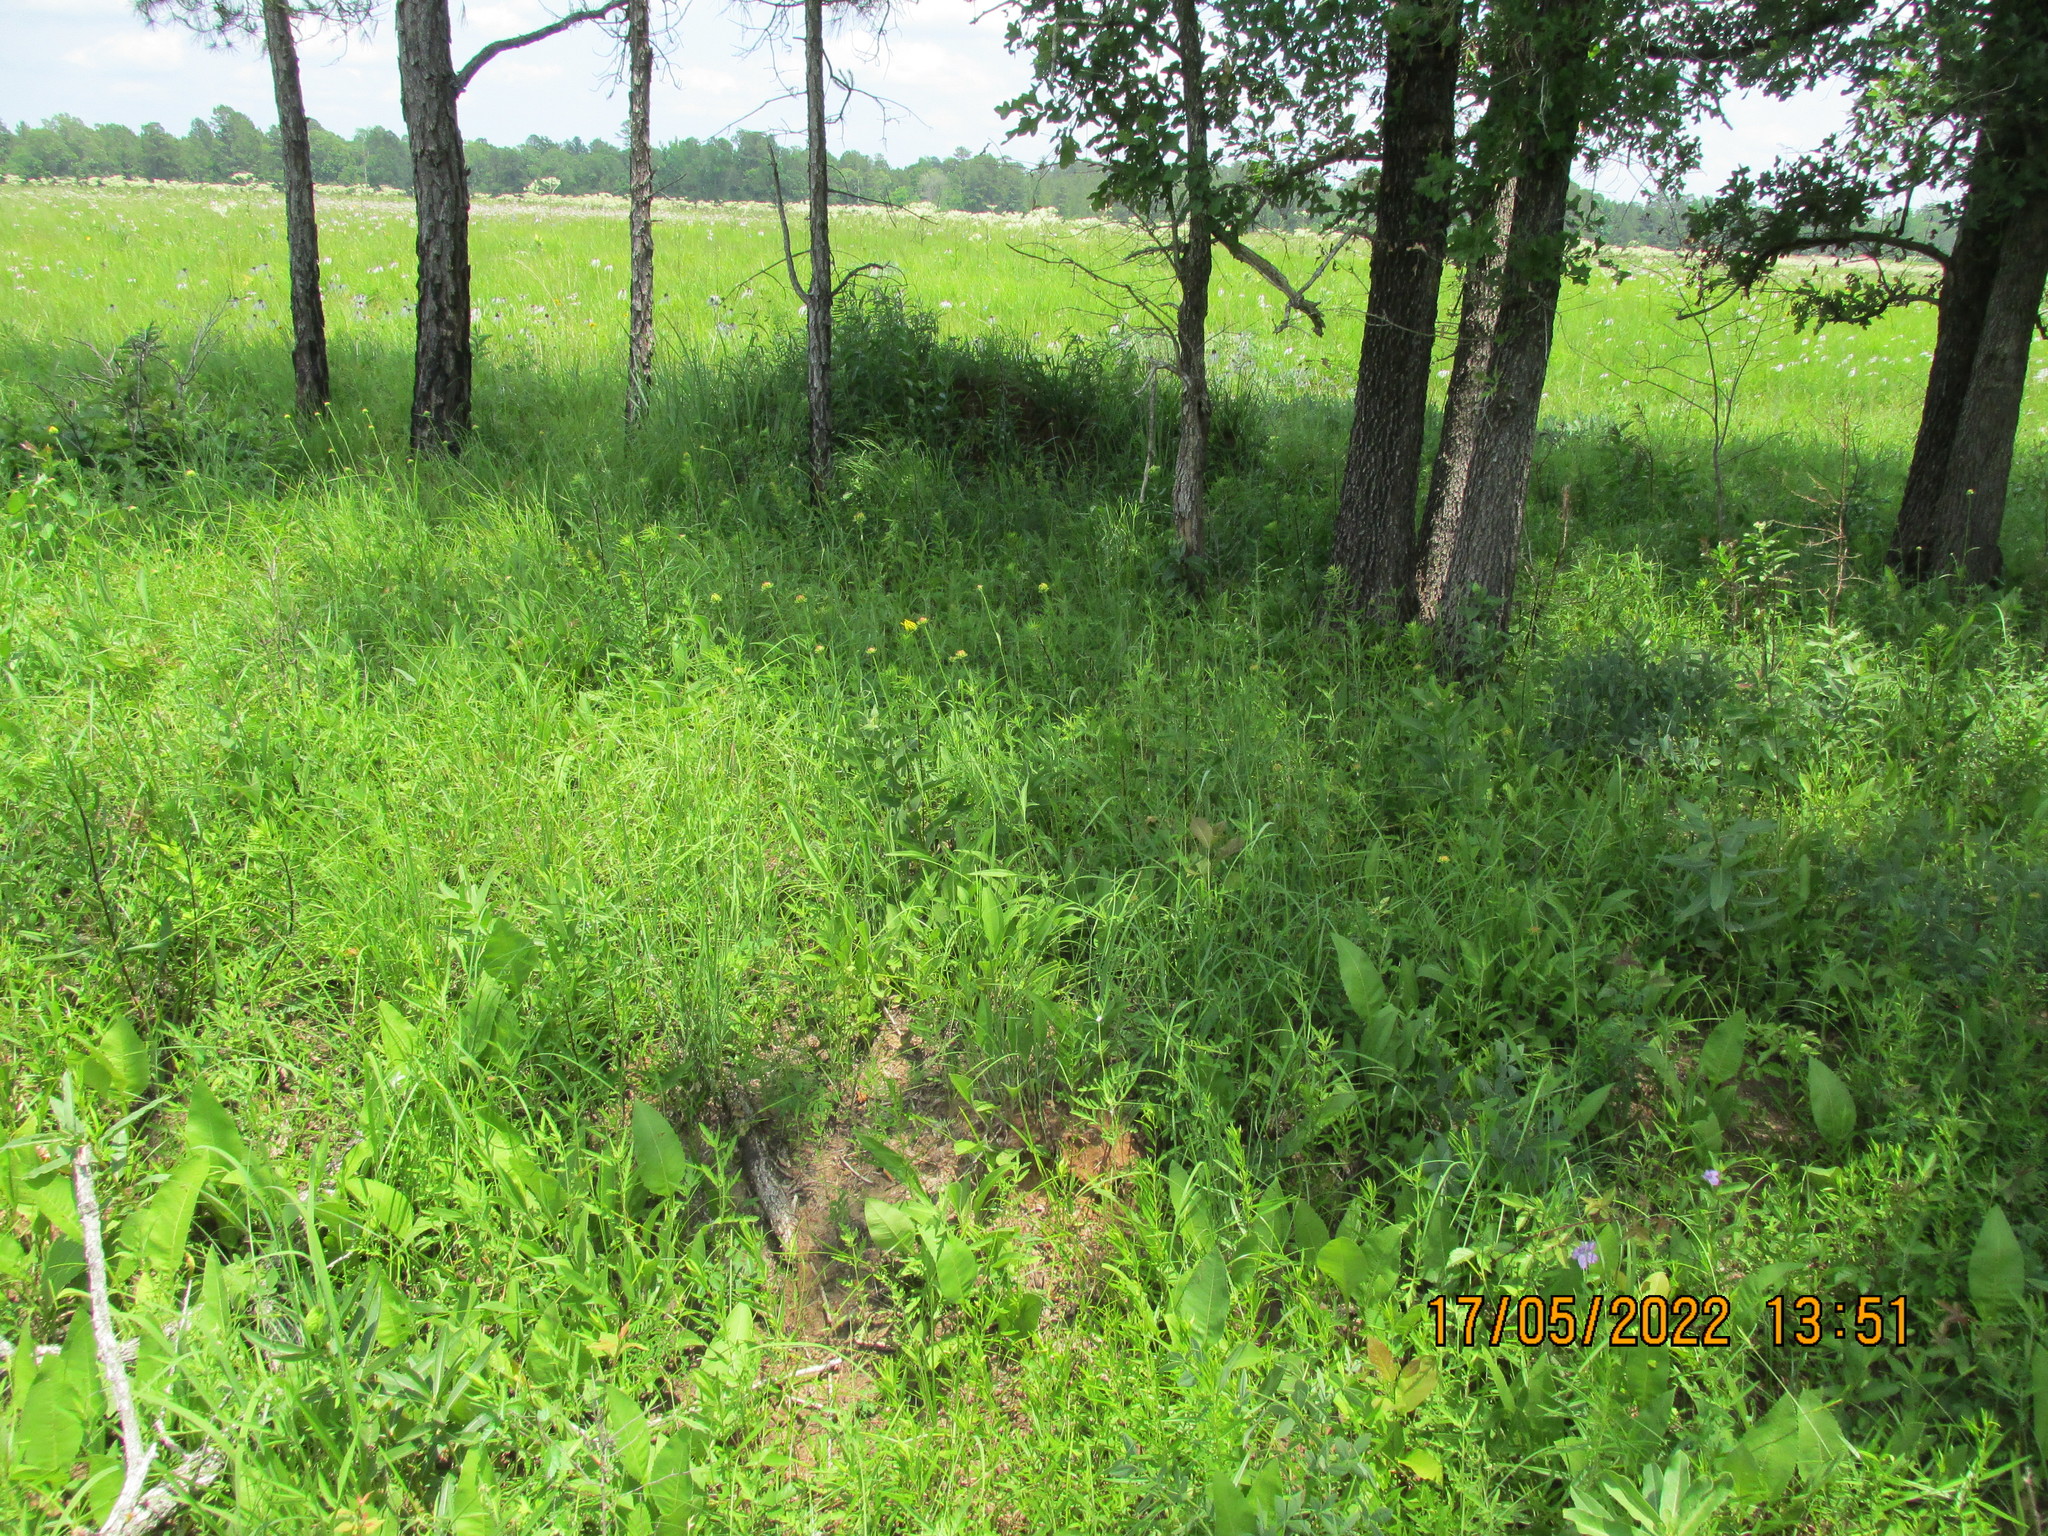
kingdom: Plantae
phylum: Tracheophyta
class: Magnoliopsida
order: Asterales
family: Asteraceae
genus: Rudbeckia
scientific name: Rudbeckia grandiflora
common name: Large-flowered coneflower
